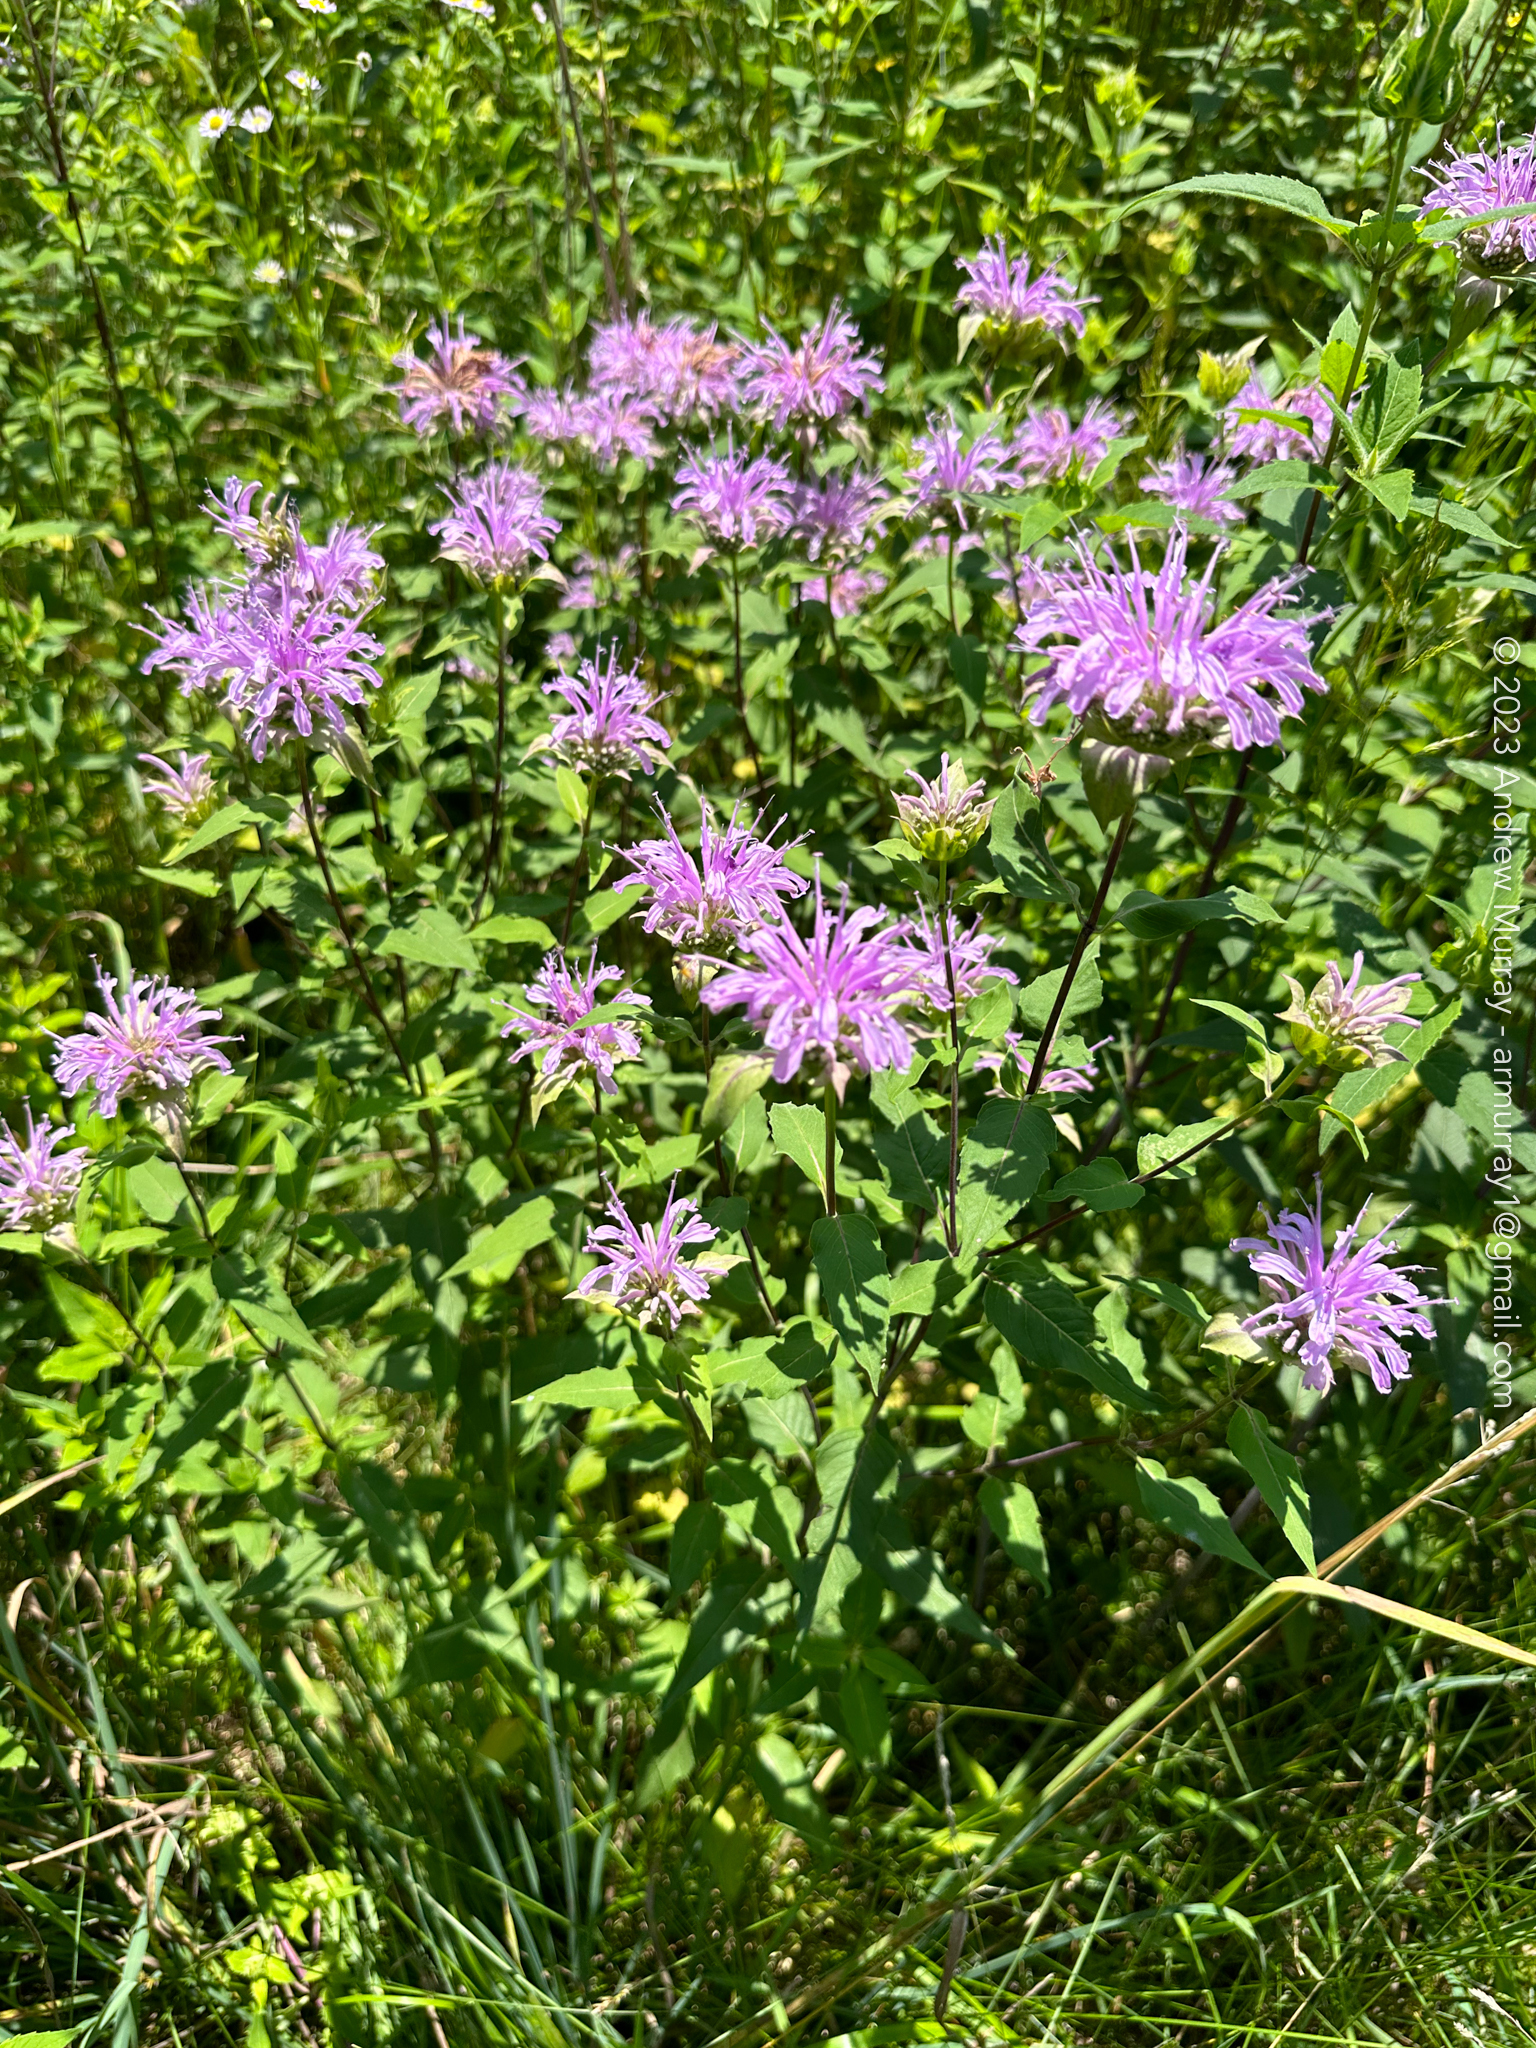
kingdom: Plantae
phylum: Tracheophyta
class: Magnoliopsida
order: Lamiales
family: Lamiaceae
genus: Monarda
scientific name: Monarda fistulosa
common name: Purple beebalm
